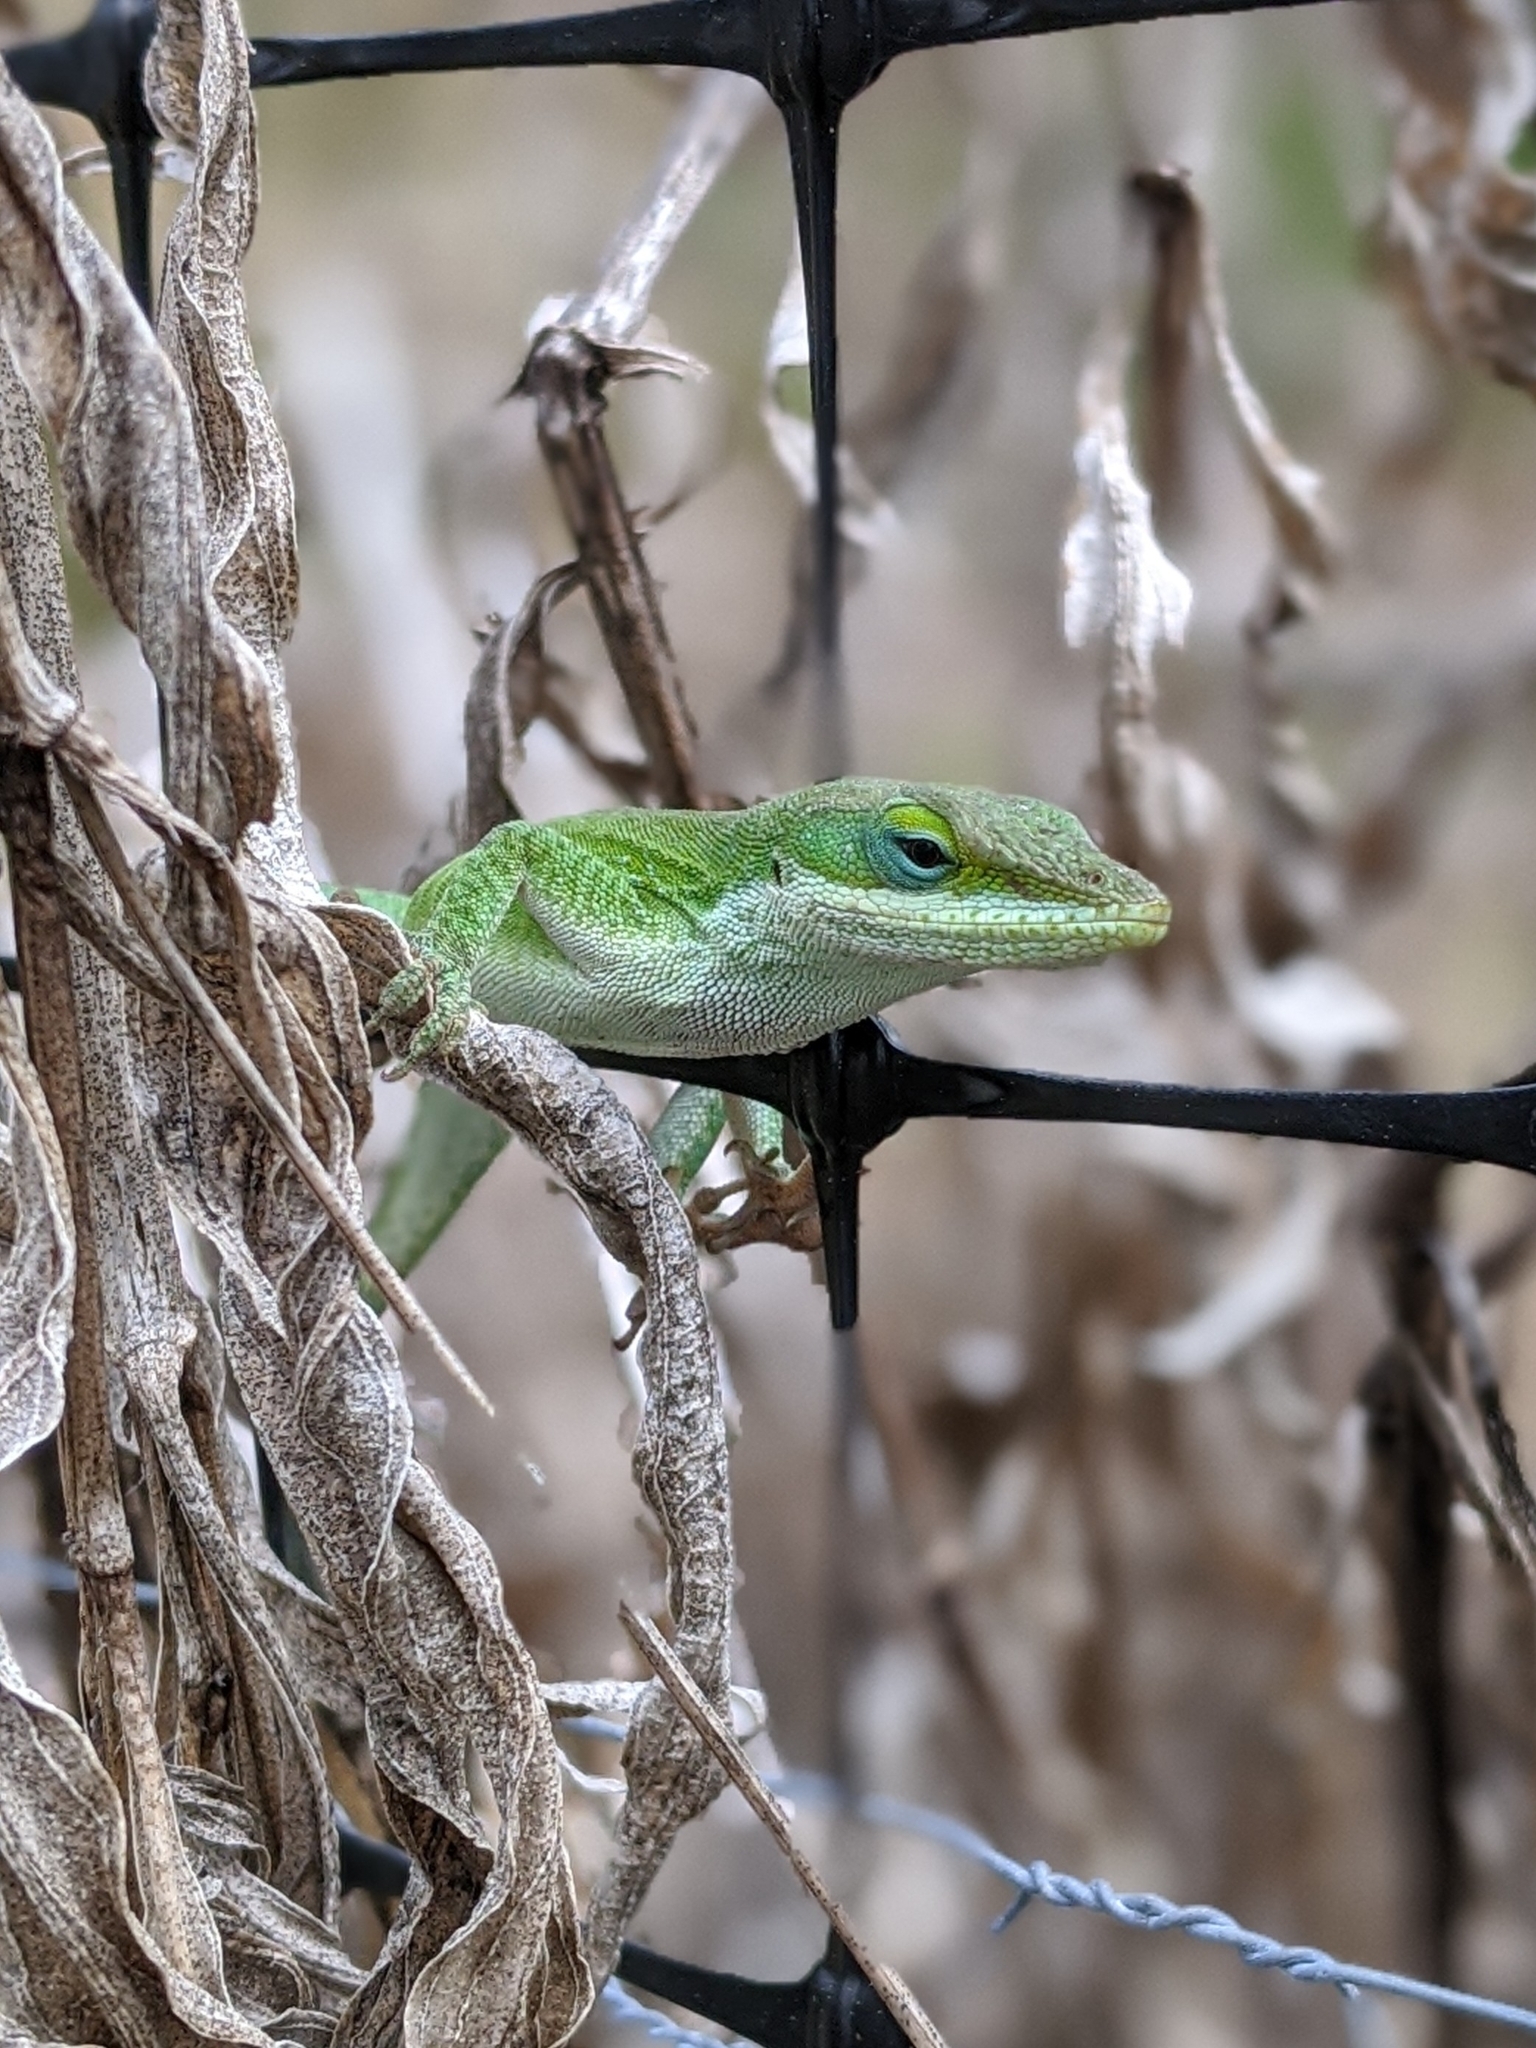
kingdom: Animalia
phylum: Chordata
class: Squamata
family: Dactyloidae
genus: Anolis
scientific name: Anolis carolinensis
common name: Green anole
